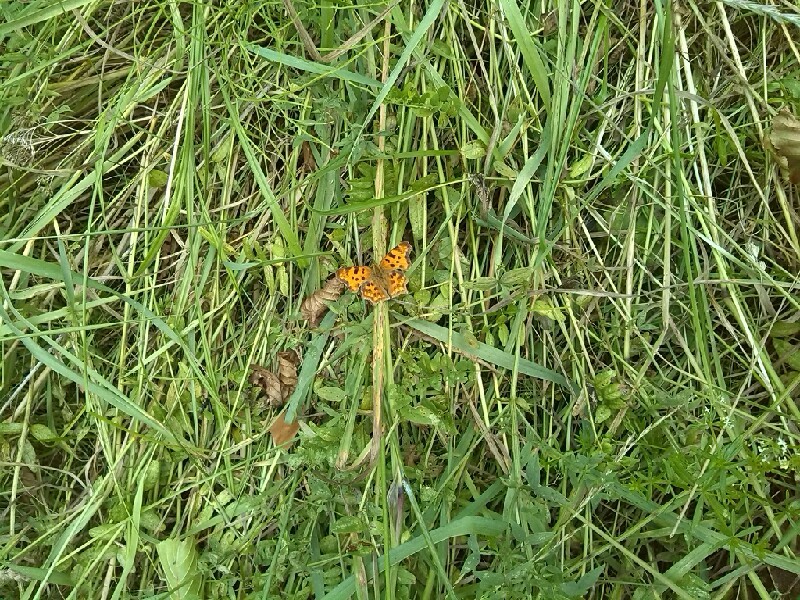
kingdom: Animalia
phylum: Arthropoda
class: Insecta
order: Lepidoptera
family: Nymphalidae
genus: Polygonia
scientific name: Polygonia c-album
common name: Comma
